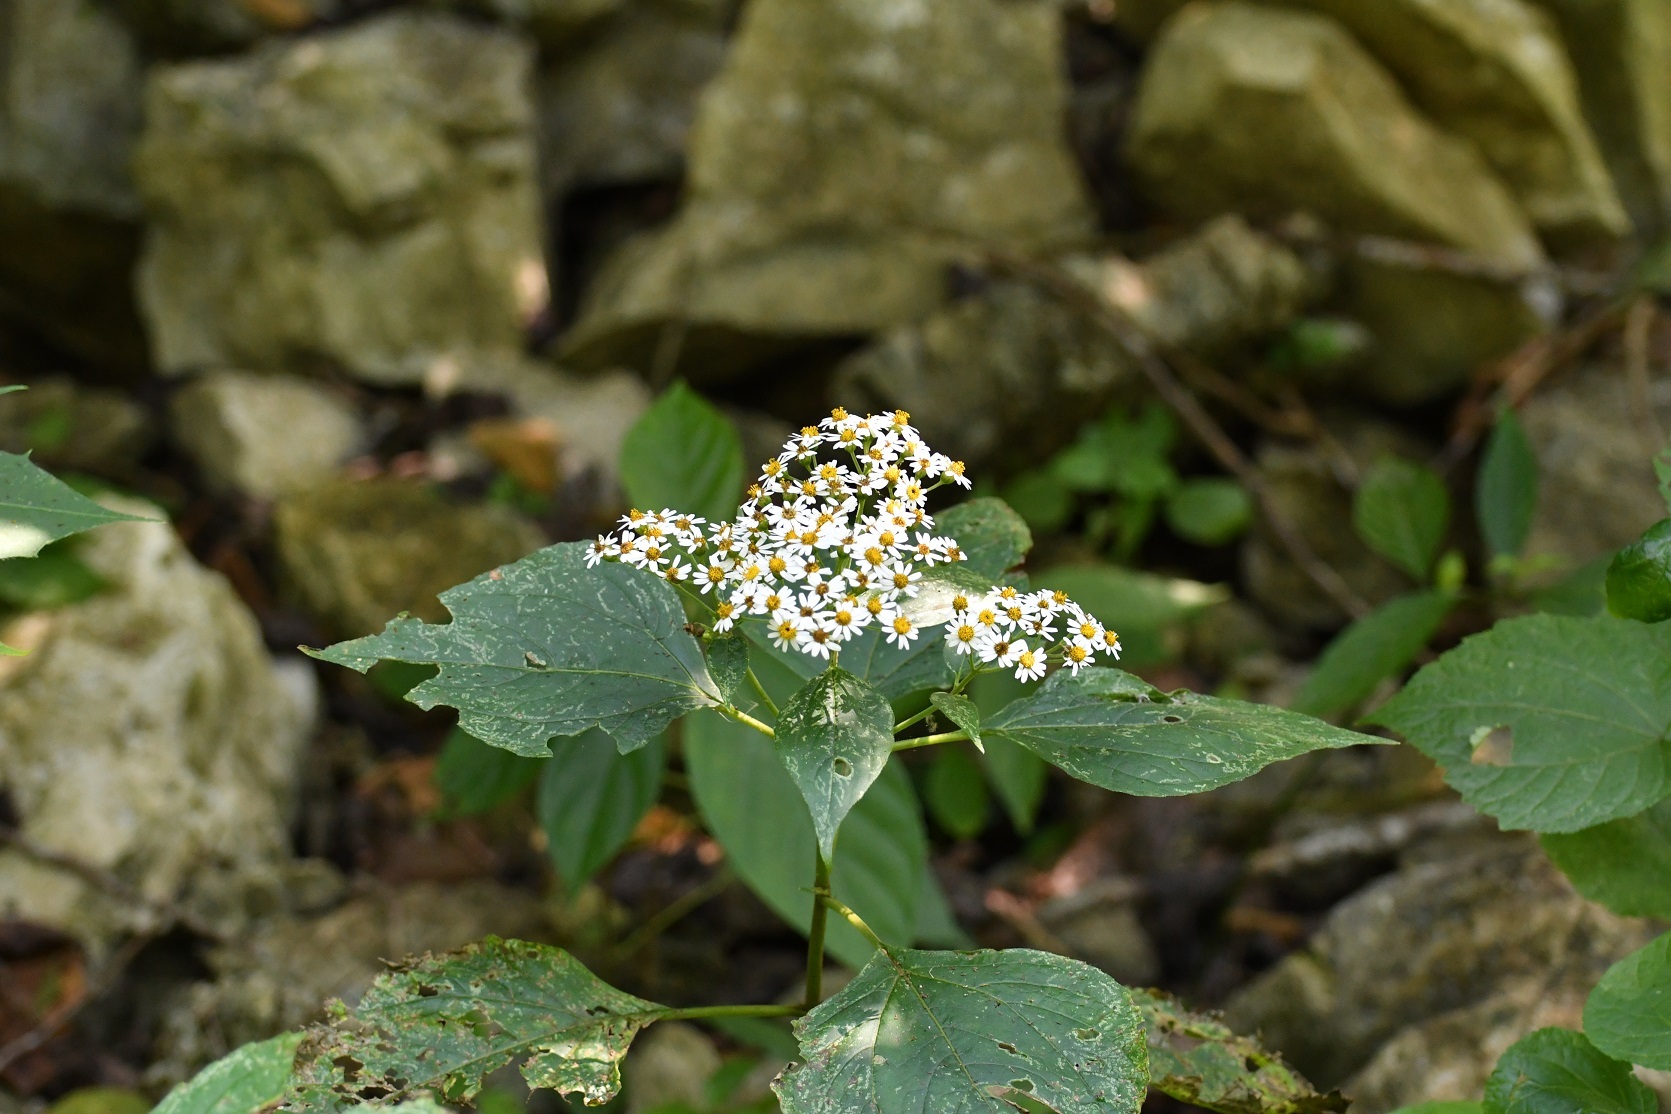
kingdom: Plantae
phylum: Tracheophyta
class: Magnoliopsida
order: Asterales
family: Asteraceae
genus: Schistocarpha
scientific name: Schistocarpha longiligula
